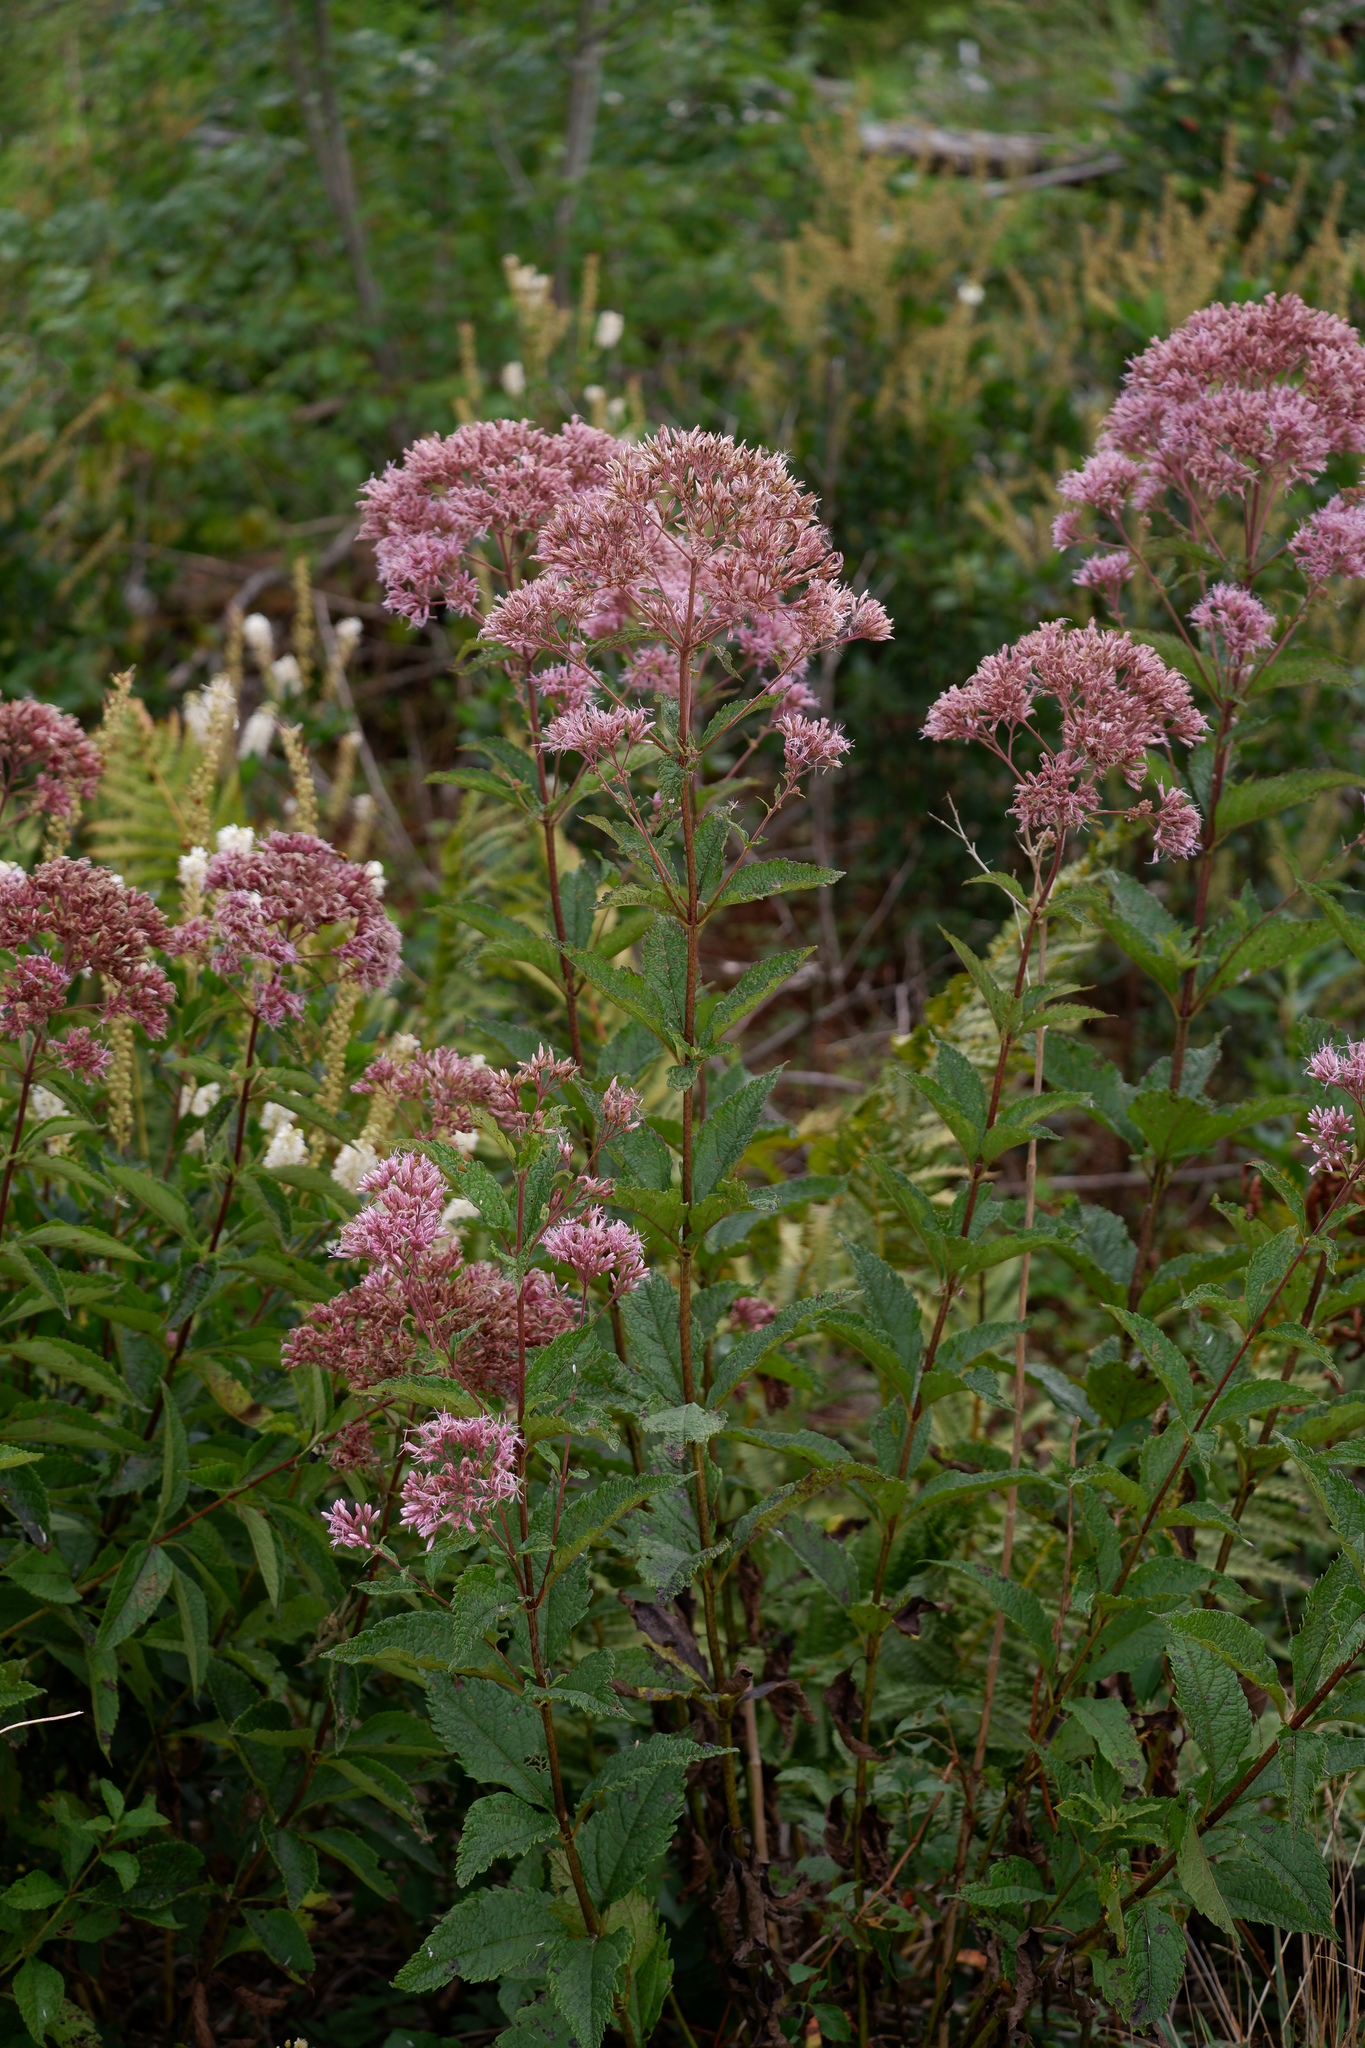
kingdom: Plantae
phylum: Tracheophyta
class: Magnoliopsida
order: Asterales
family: Asteraceae
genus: Eutrochium
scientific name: Eutrochium dubium
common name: Coastal plain joe pye weed
